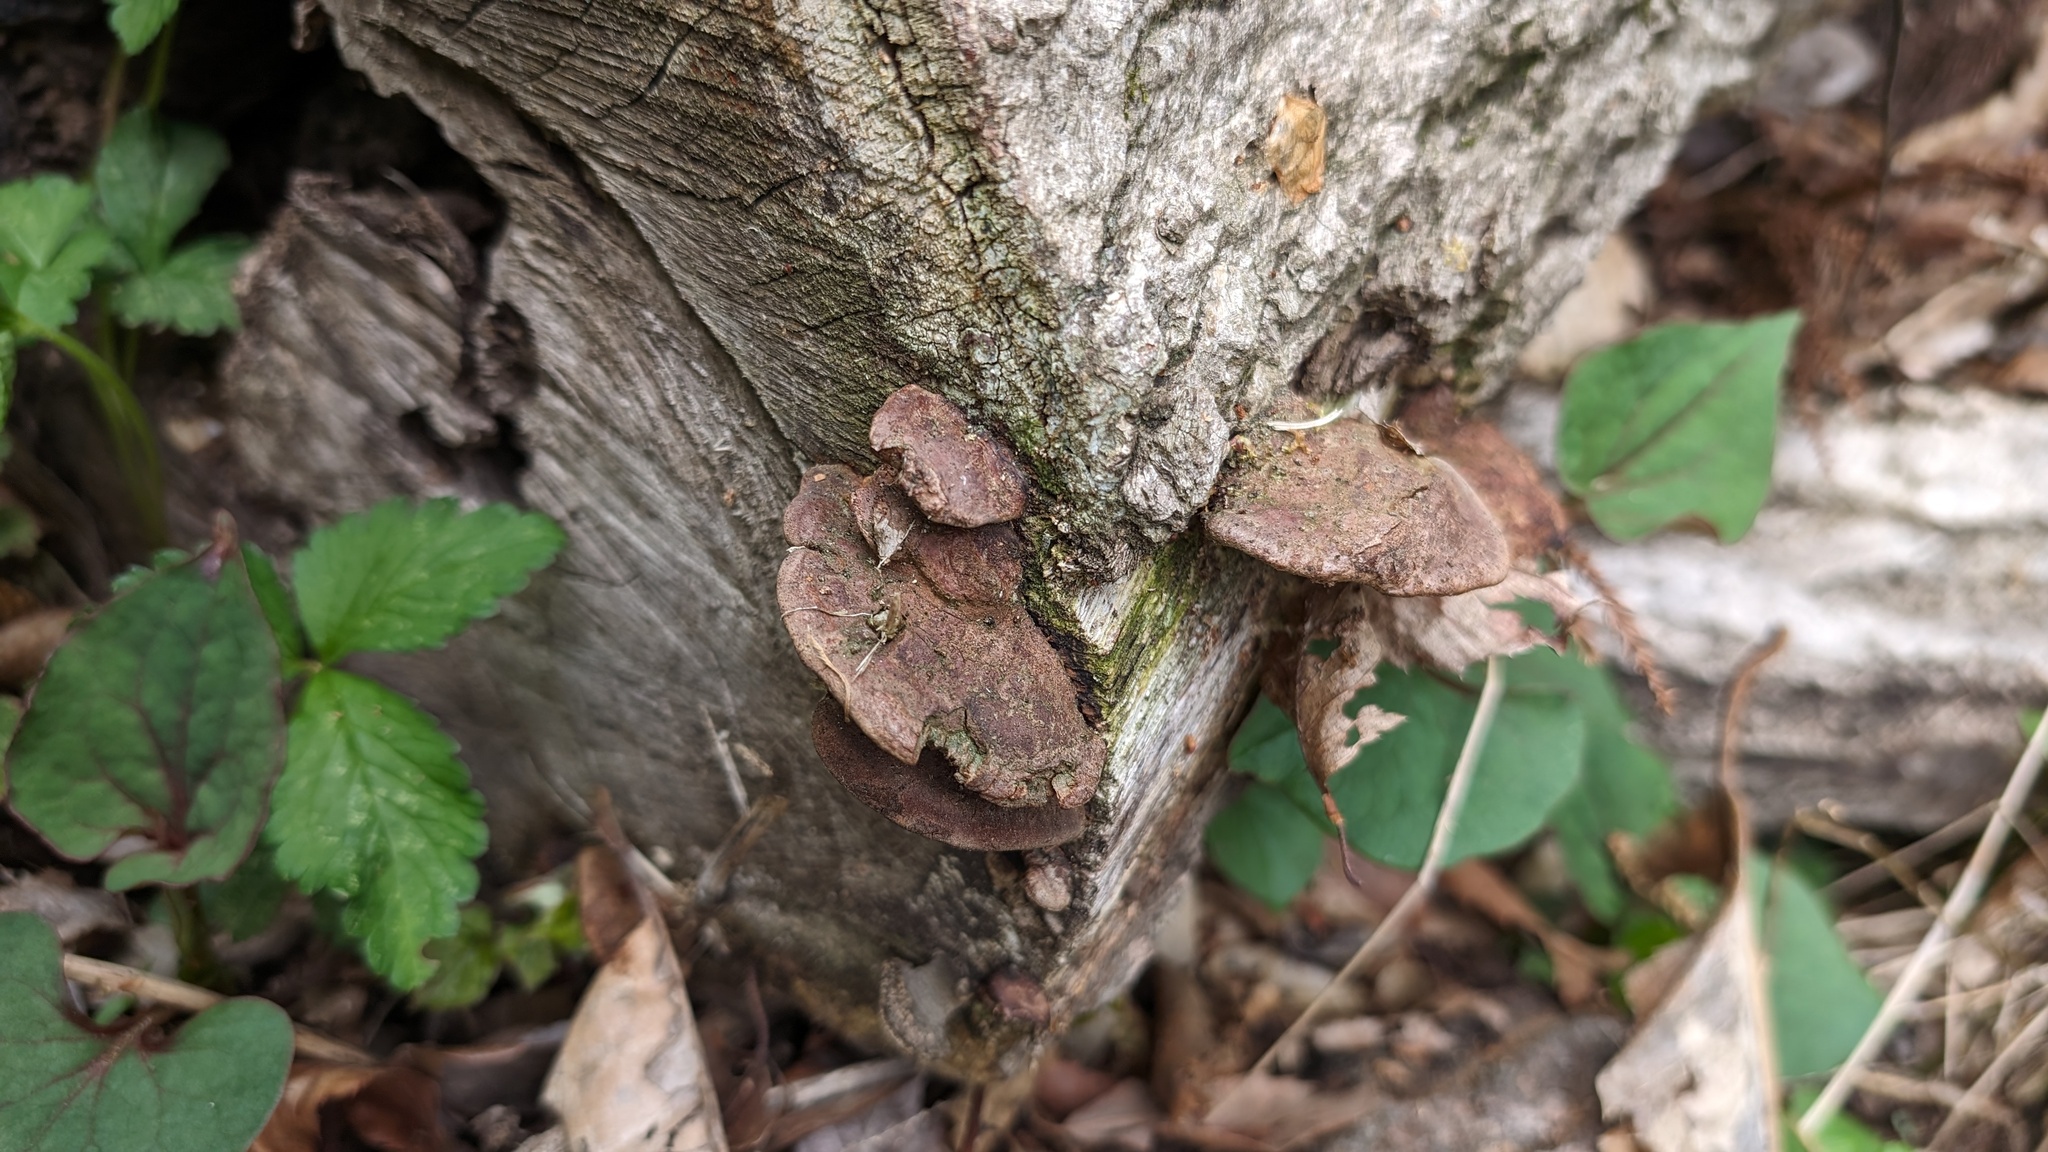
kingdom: Fungi
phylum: Basidiomycota
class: Agaricomycetes
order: Hymenochaetales
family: Hymenochaetaceae
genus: Phellinus
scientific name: Phellinus gilvus
